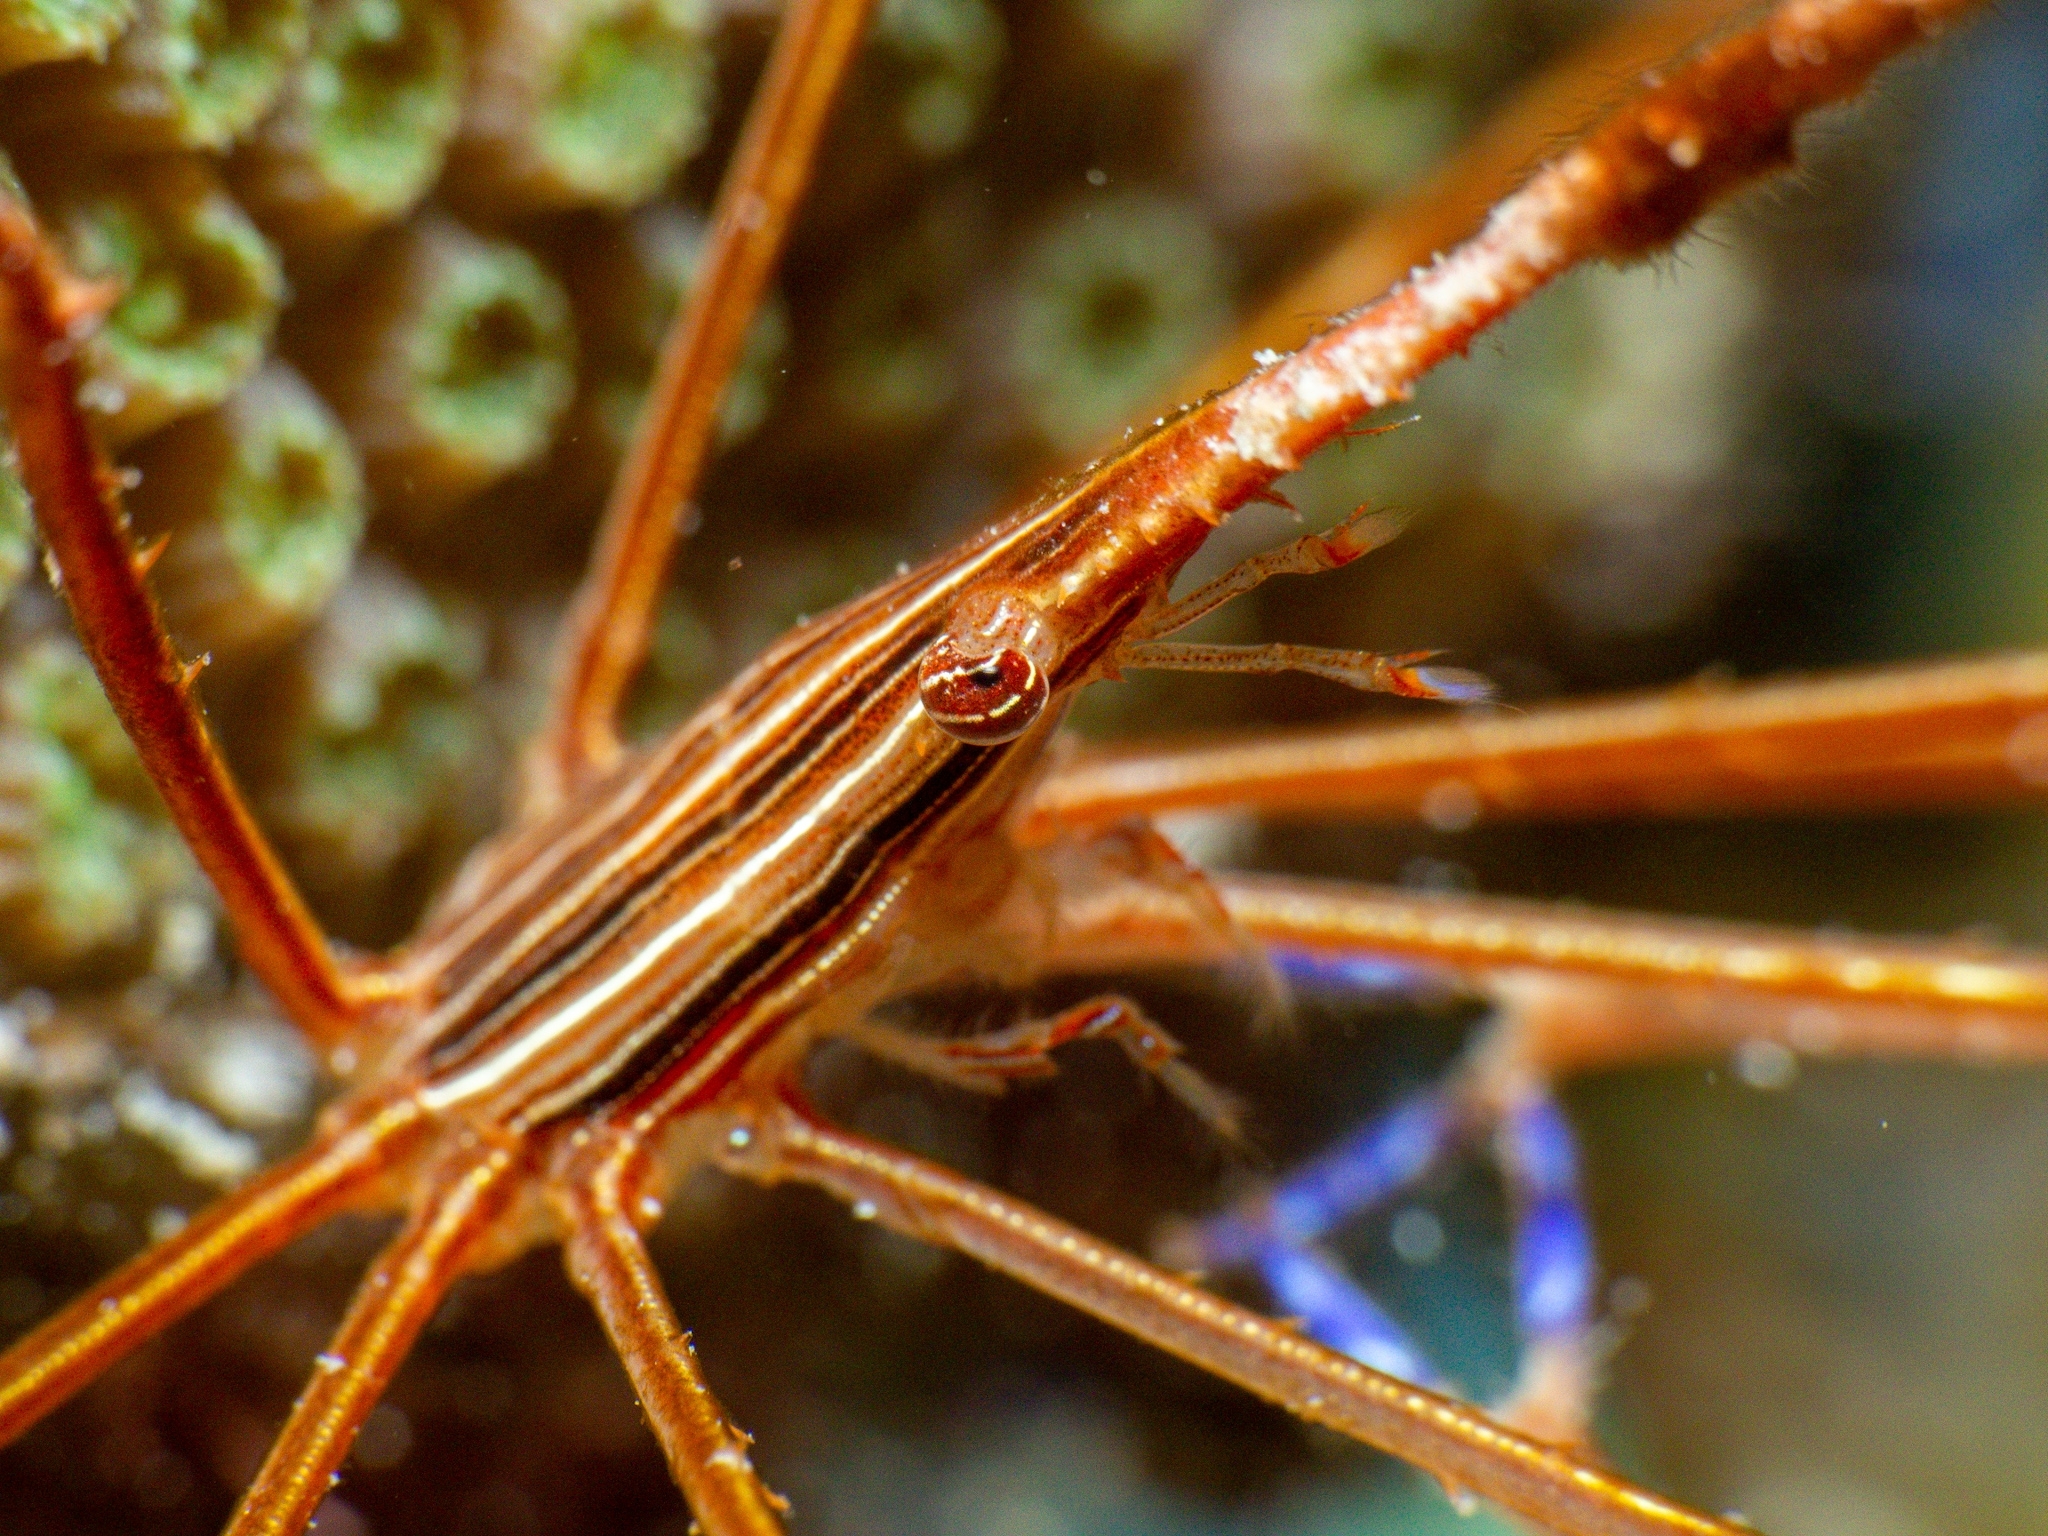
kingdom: Animalia
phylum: Arthropoda
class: Malacostraca
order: Decapoda
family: Inachoididae
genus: Stenorhynchus
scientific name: Stenorhynchus seticornis
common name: Arrow crab
